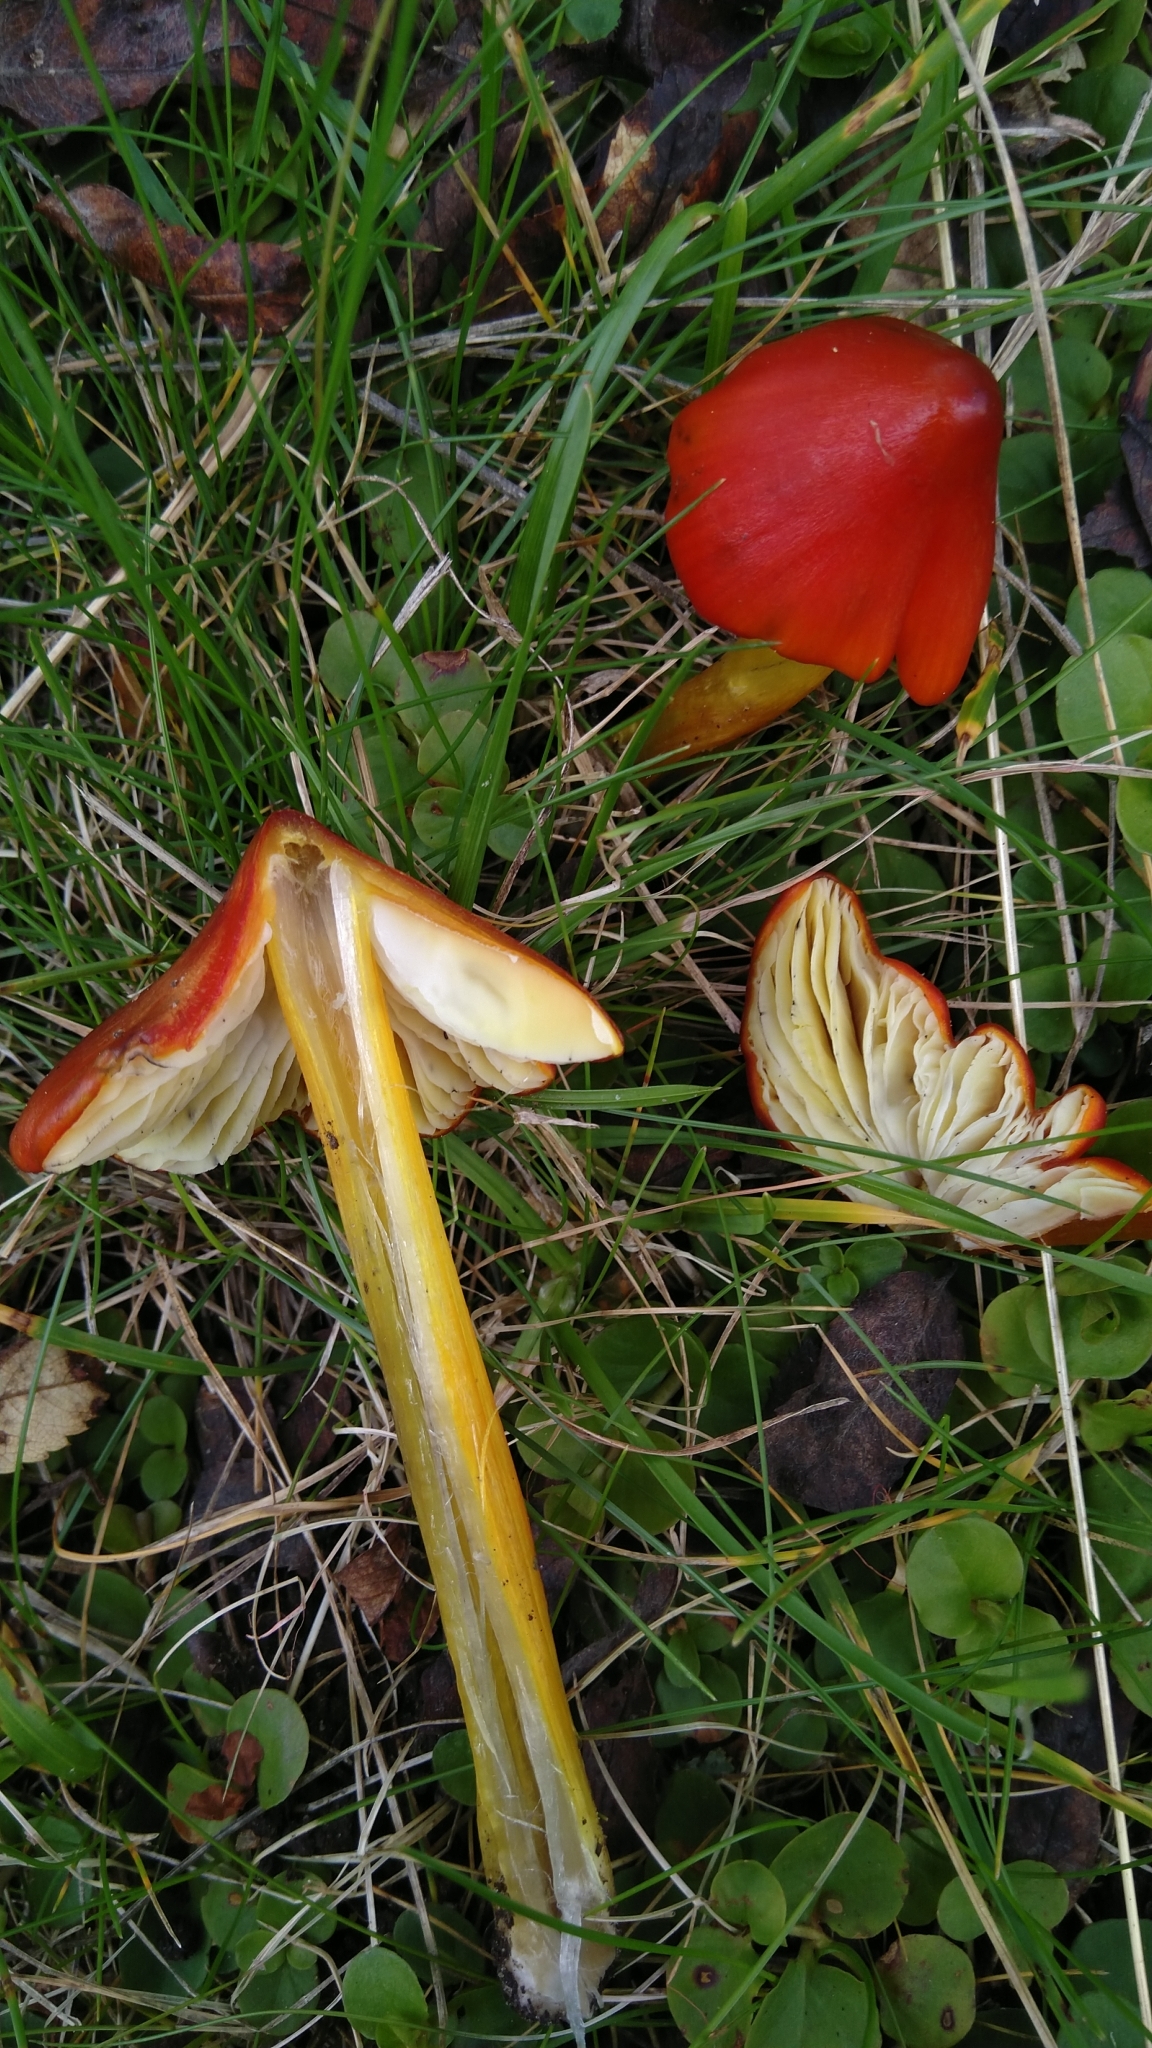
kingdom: Fungi
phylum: Basidiomycota
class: Agaricomycetes
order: Agaricales
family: Hygrophoraceae
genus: Hygrocybe
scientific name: Hygrocybe conica
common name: Blackening wax-cap
